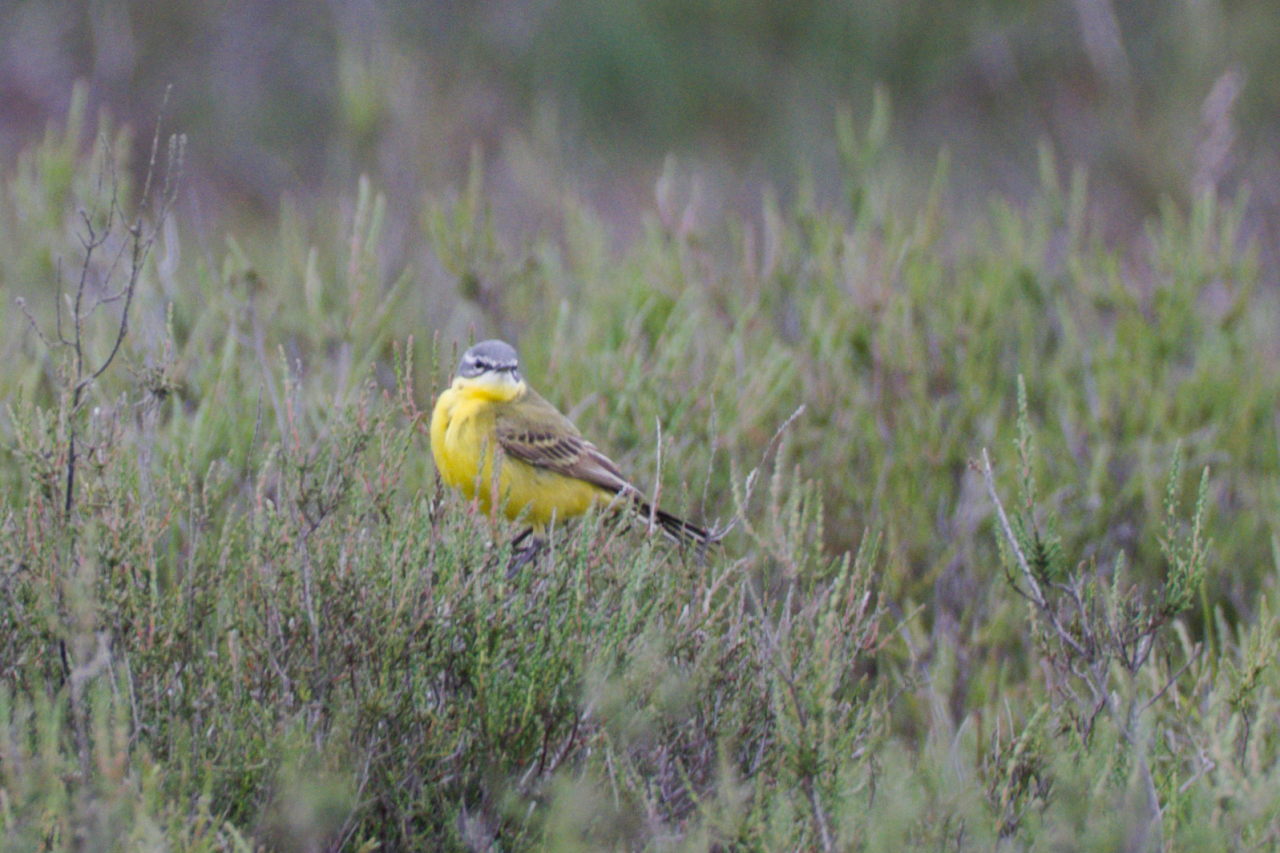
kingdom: Animalia
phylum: Chordata
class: Aves
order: Passeriformes
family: Motacillidae
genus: Motacilla
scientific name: Motacilla flava
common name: Western yellow wagtail
